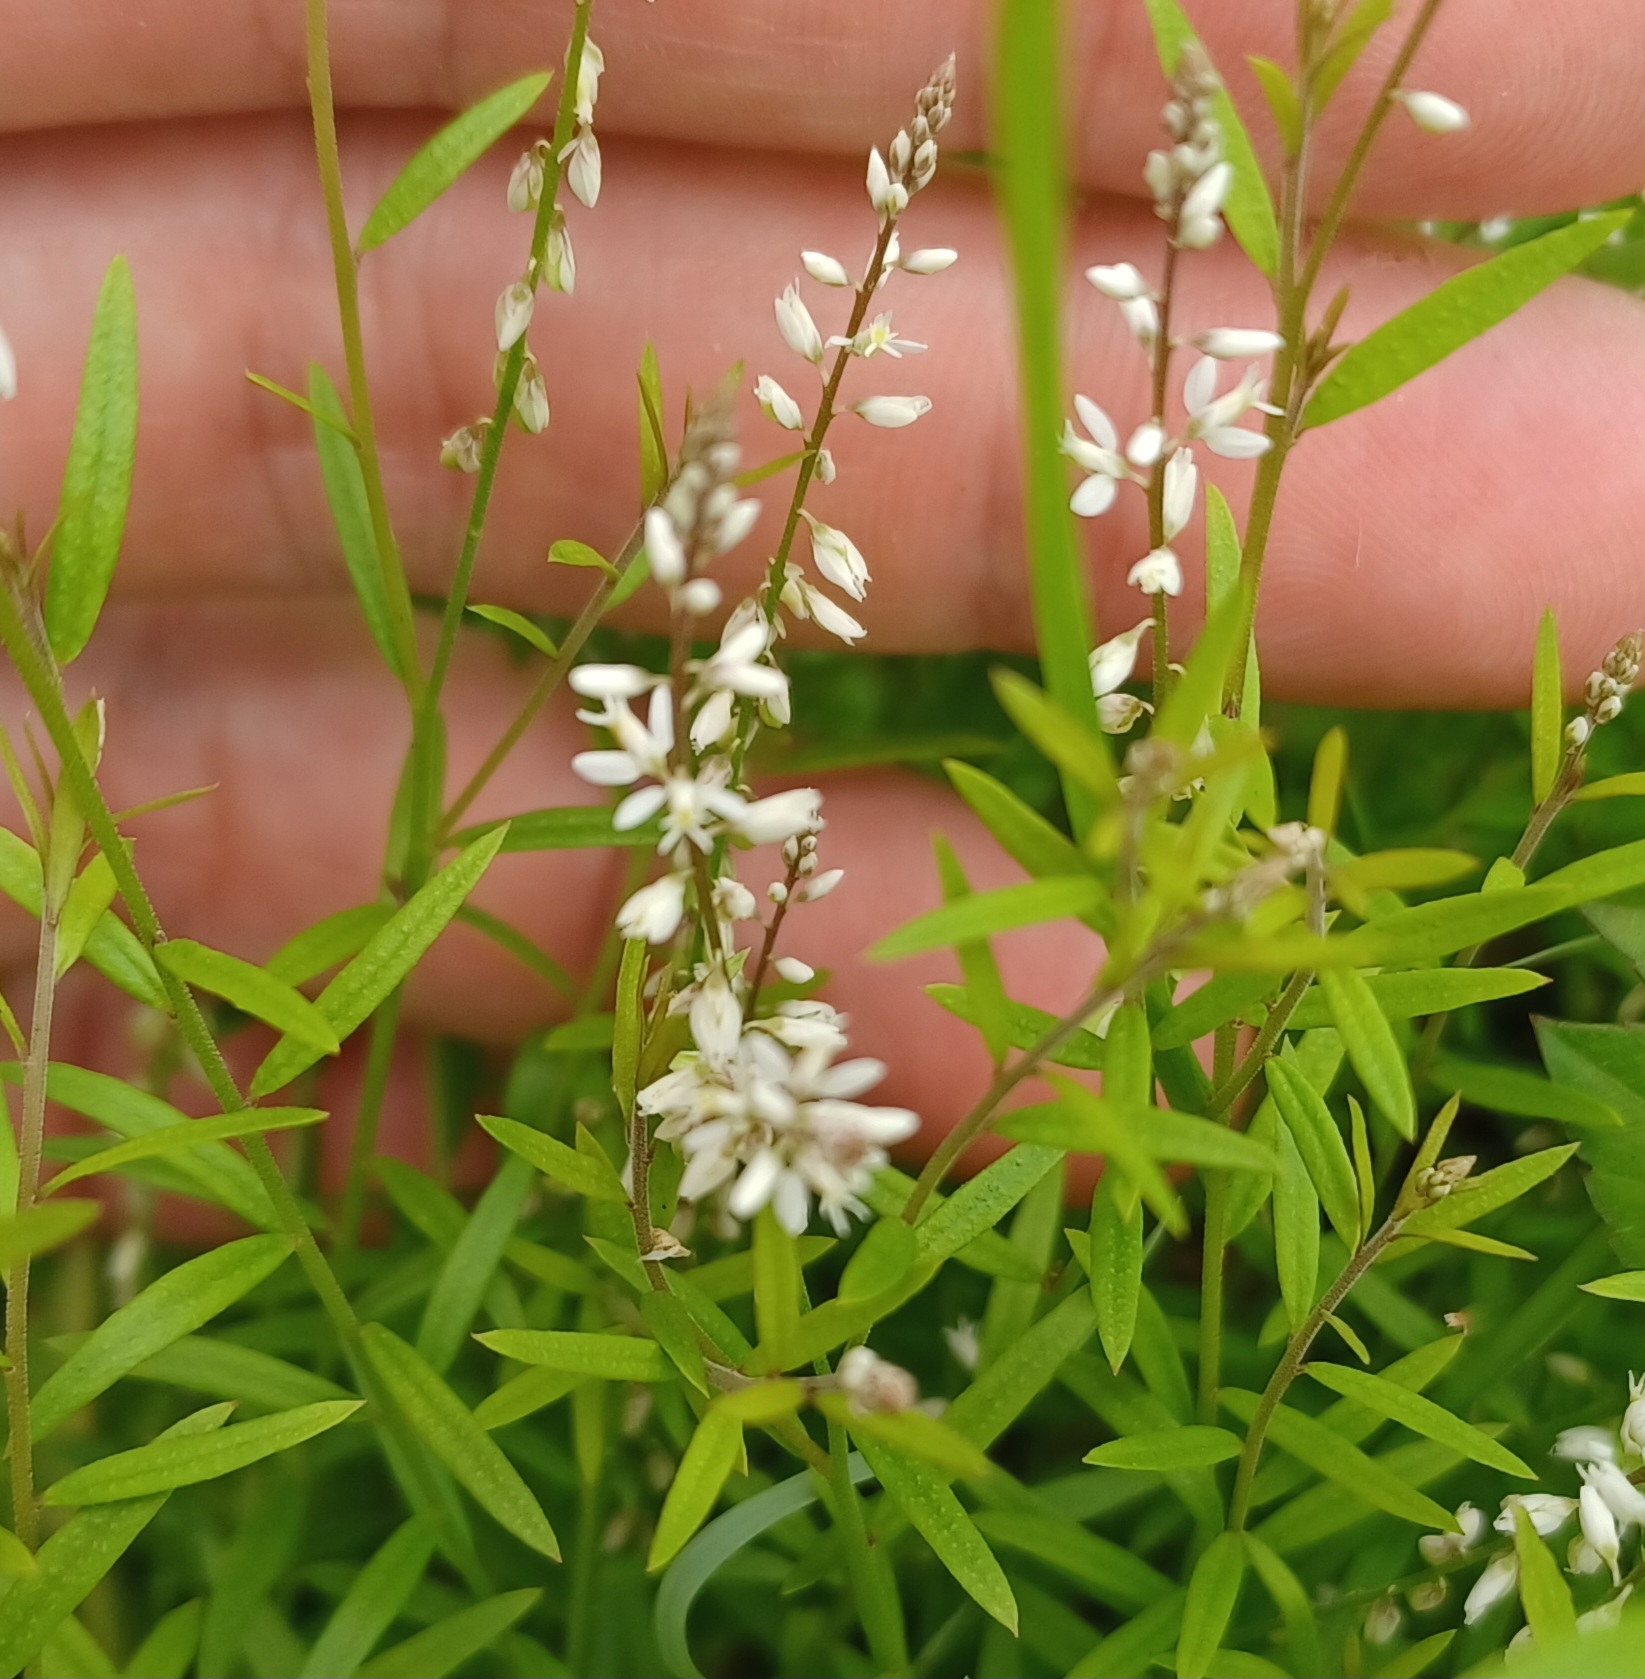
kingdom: Plantae
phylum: Tracheophyta
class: Magnoliopsida
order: Fabales
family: Polygalaceae
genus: Polygala
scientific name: Polygala paniculata
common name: Orosne
